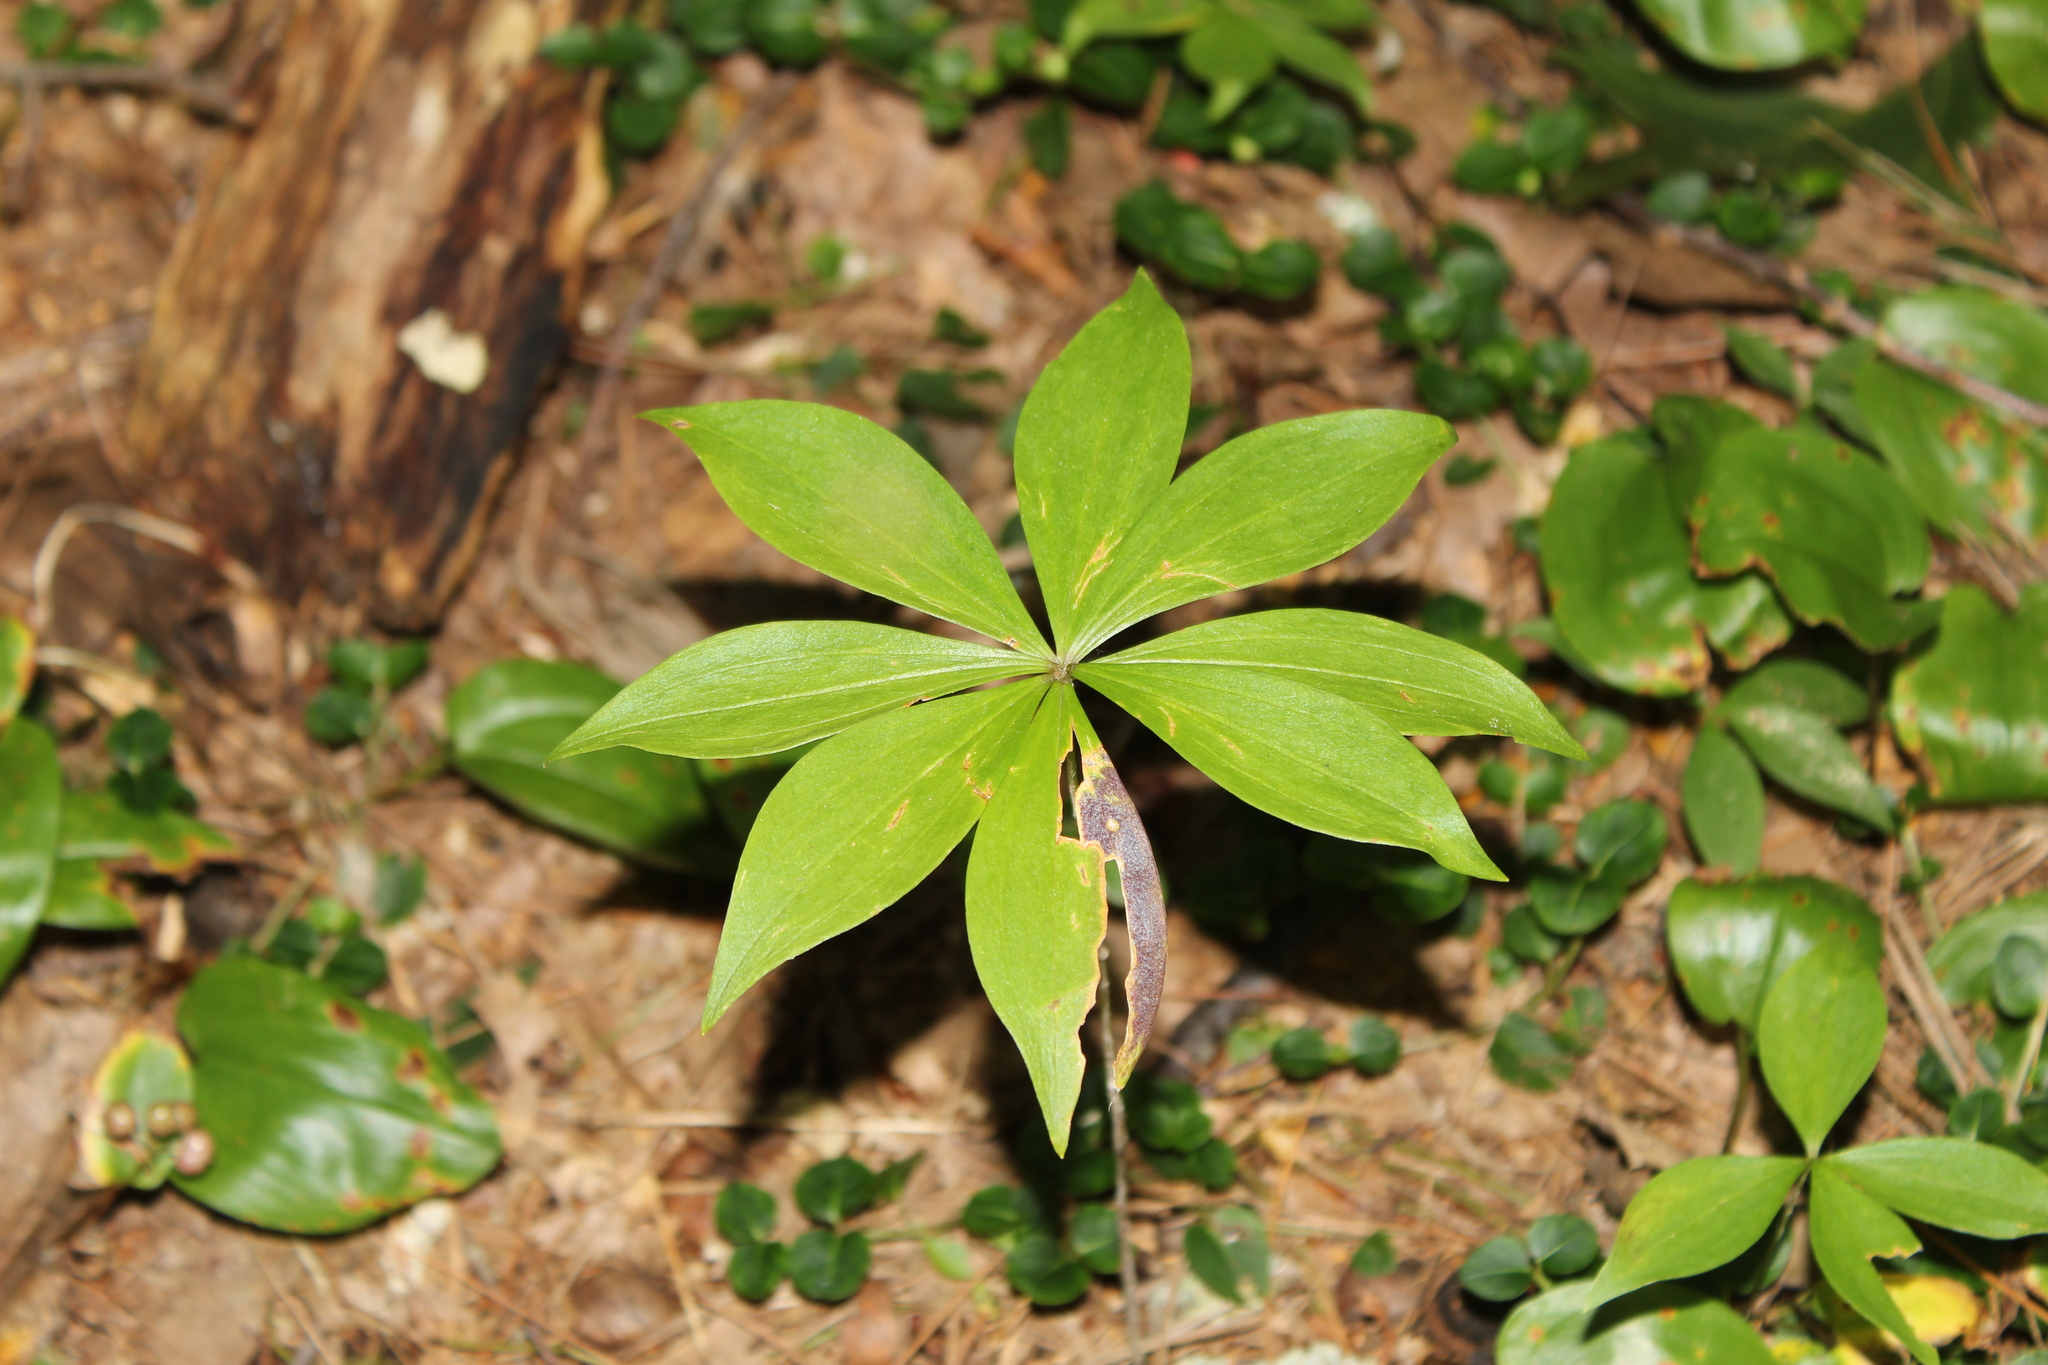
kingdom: Plantae
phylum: Tracheophyta
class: Liliopsida
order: Liliales
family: Liliaceae
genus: Medeola
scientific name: Medeola virginiana
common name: Indian cucumber-root
